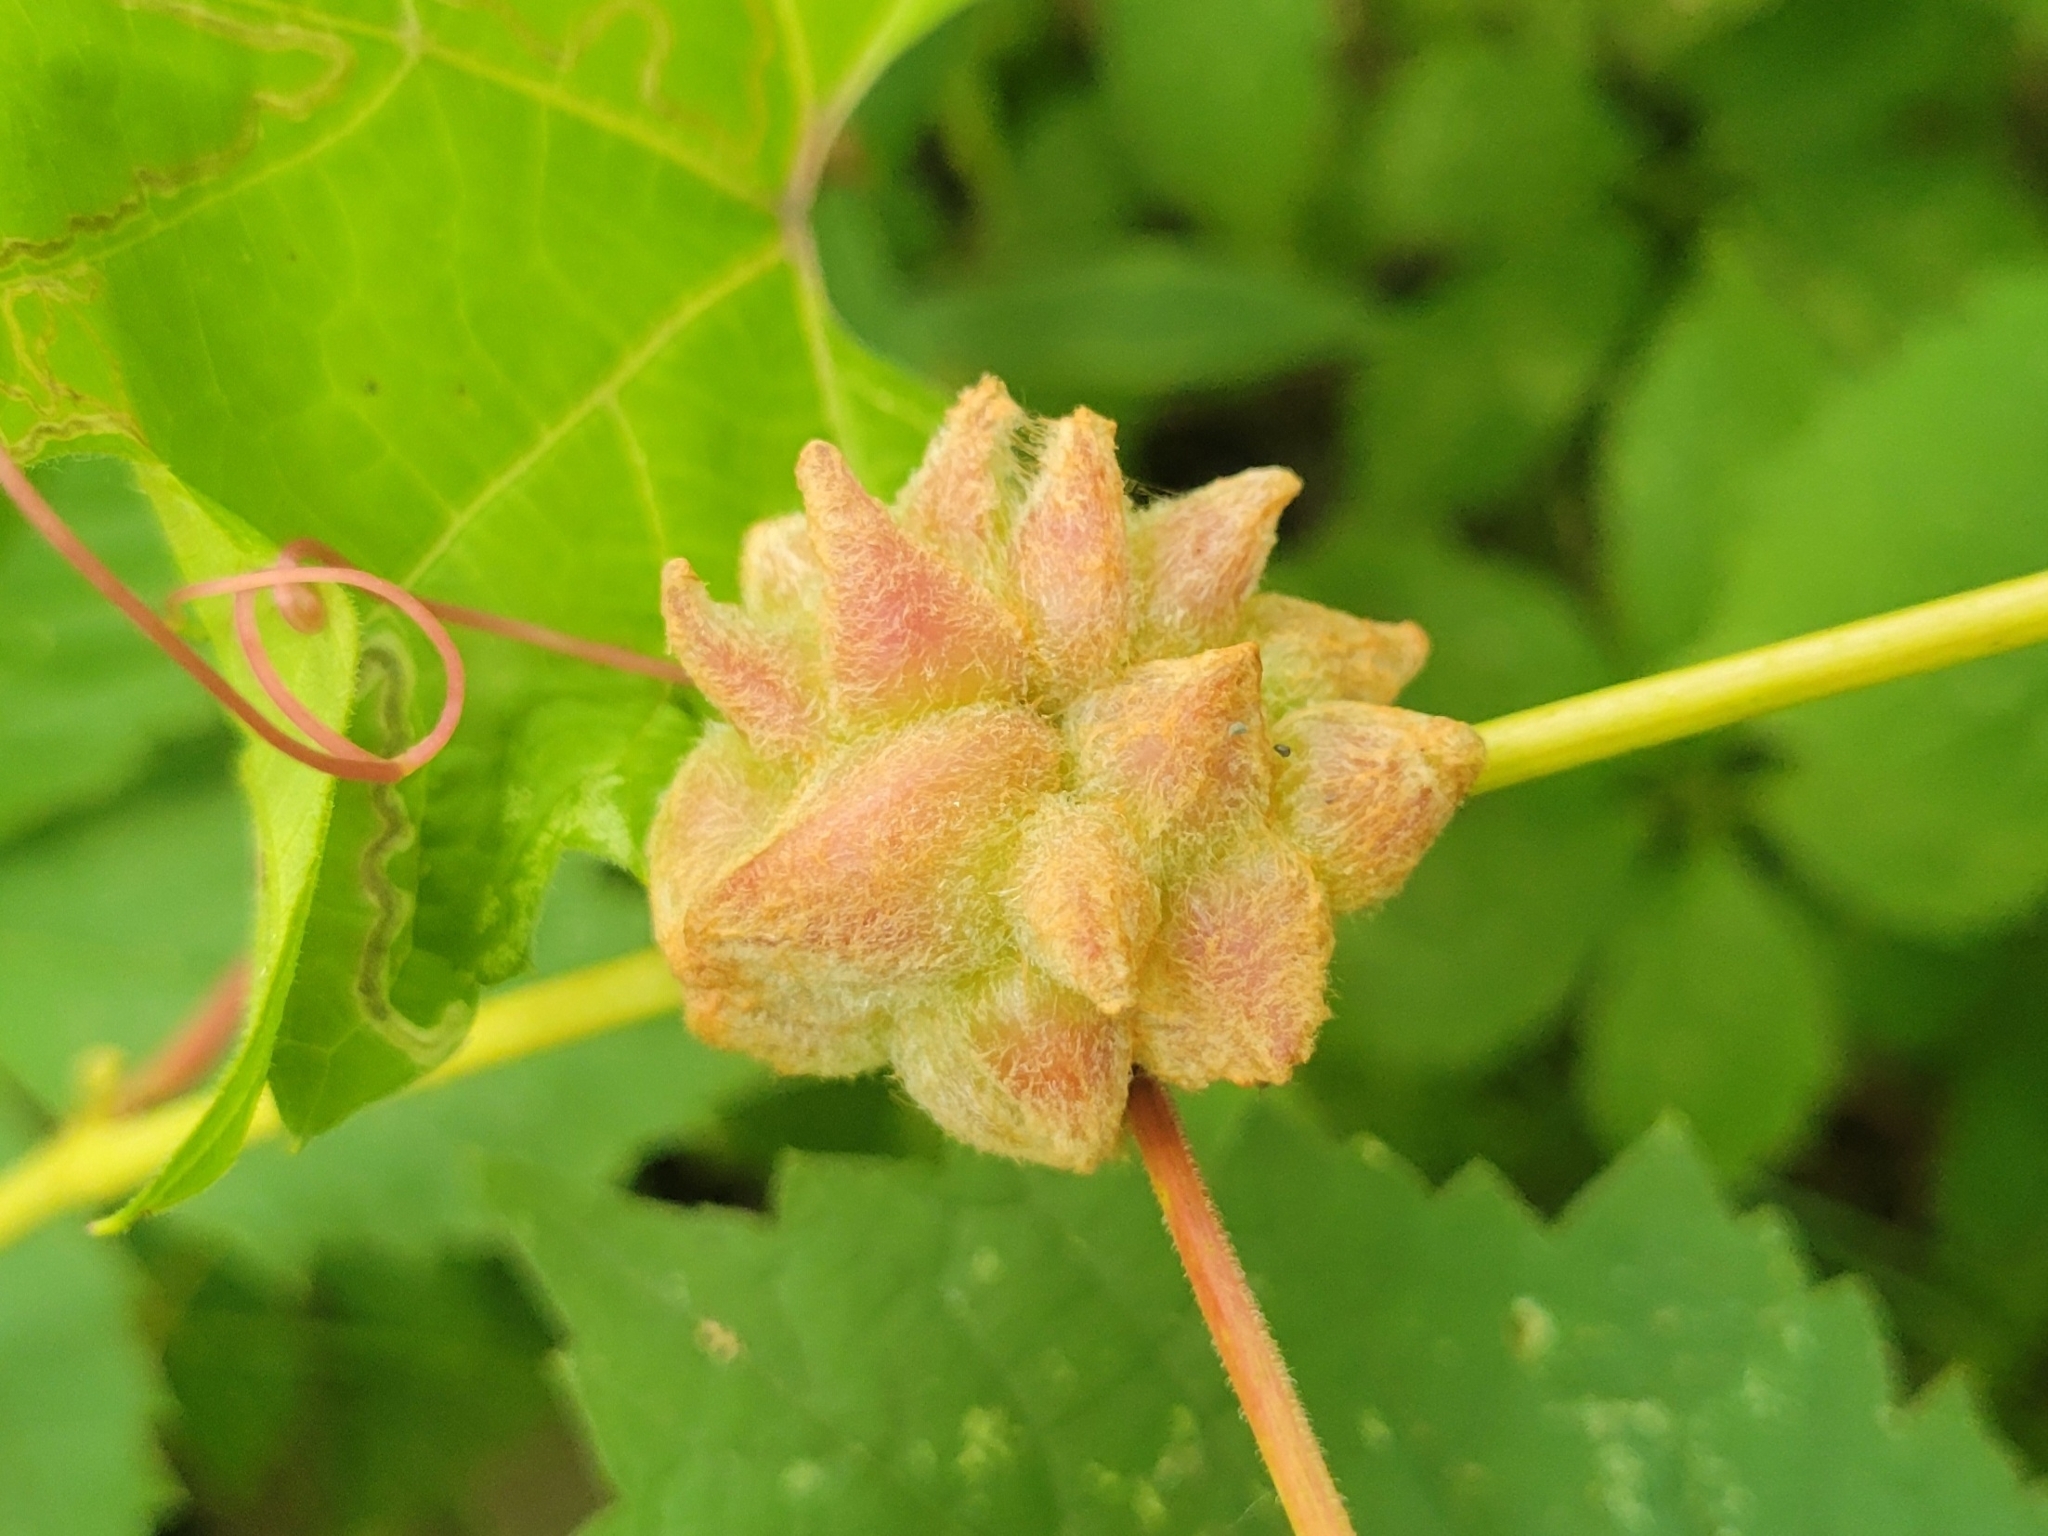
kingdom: Animalia
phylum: Arthropoda
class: Insecta
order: Diptera
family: Cecidomyiidae
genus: Ampelomyia
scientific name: Ampelomyia vitiscoryloides
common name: Grape filbert gall
